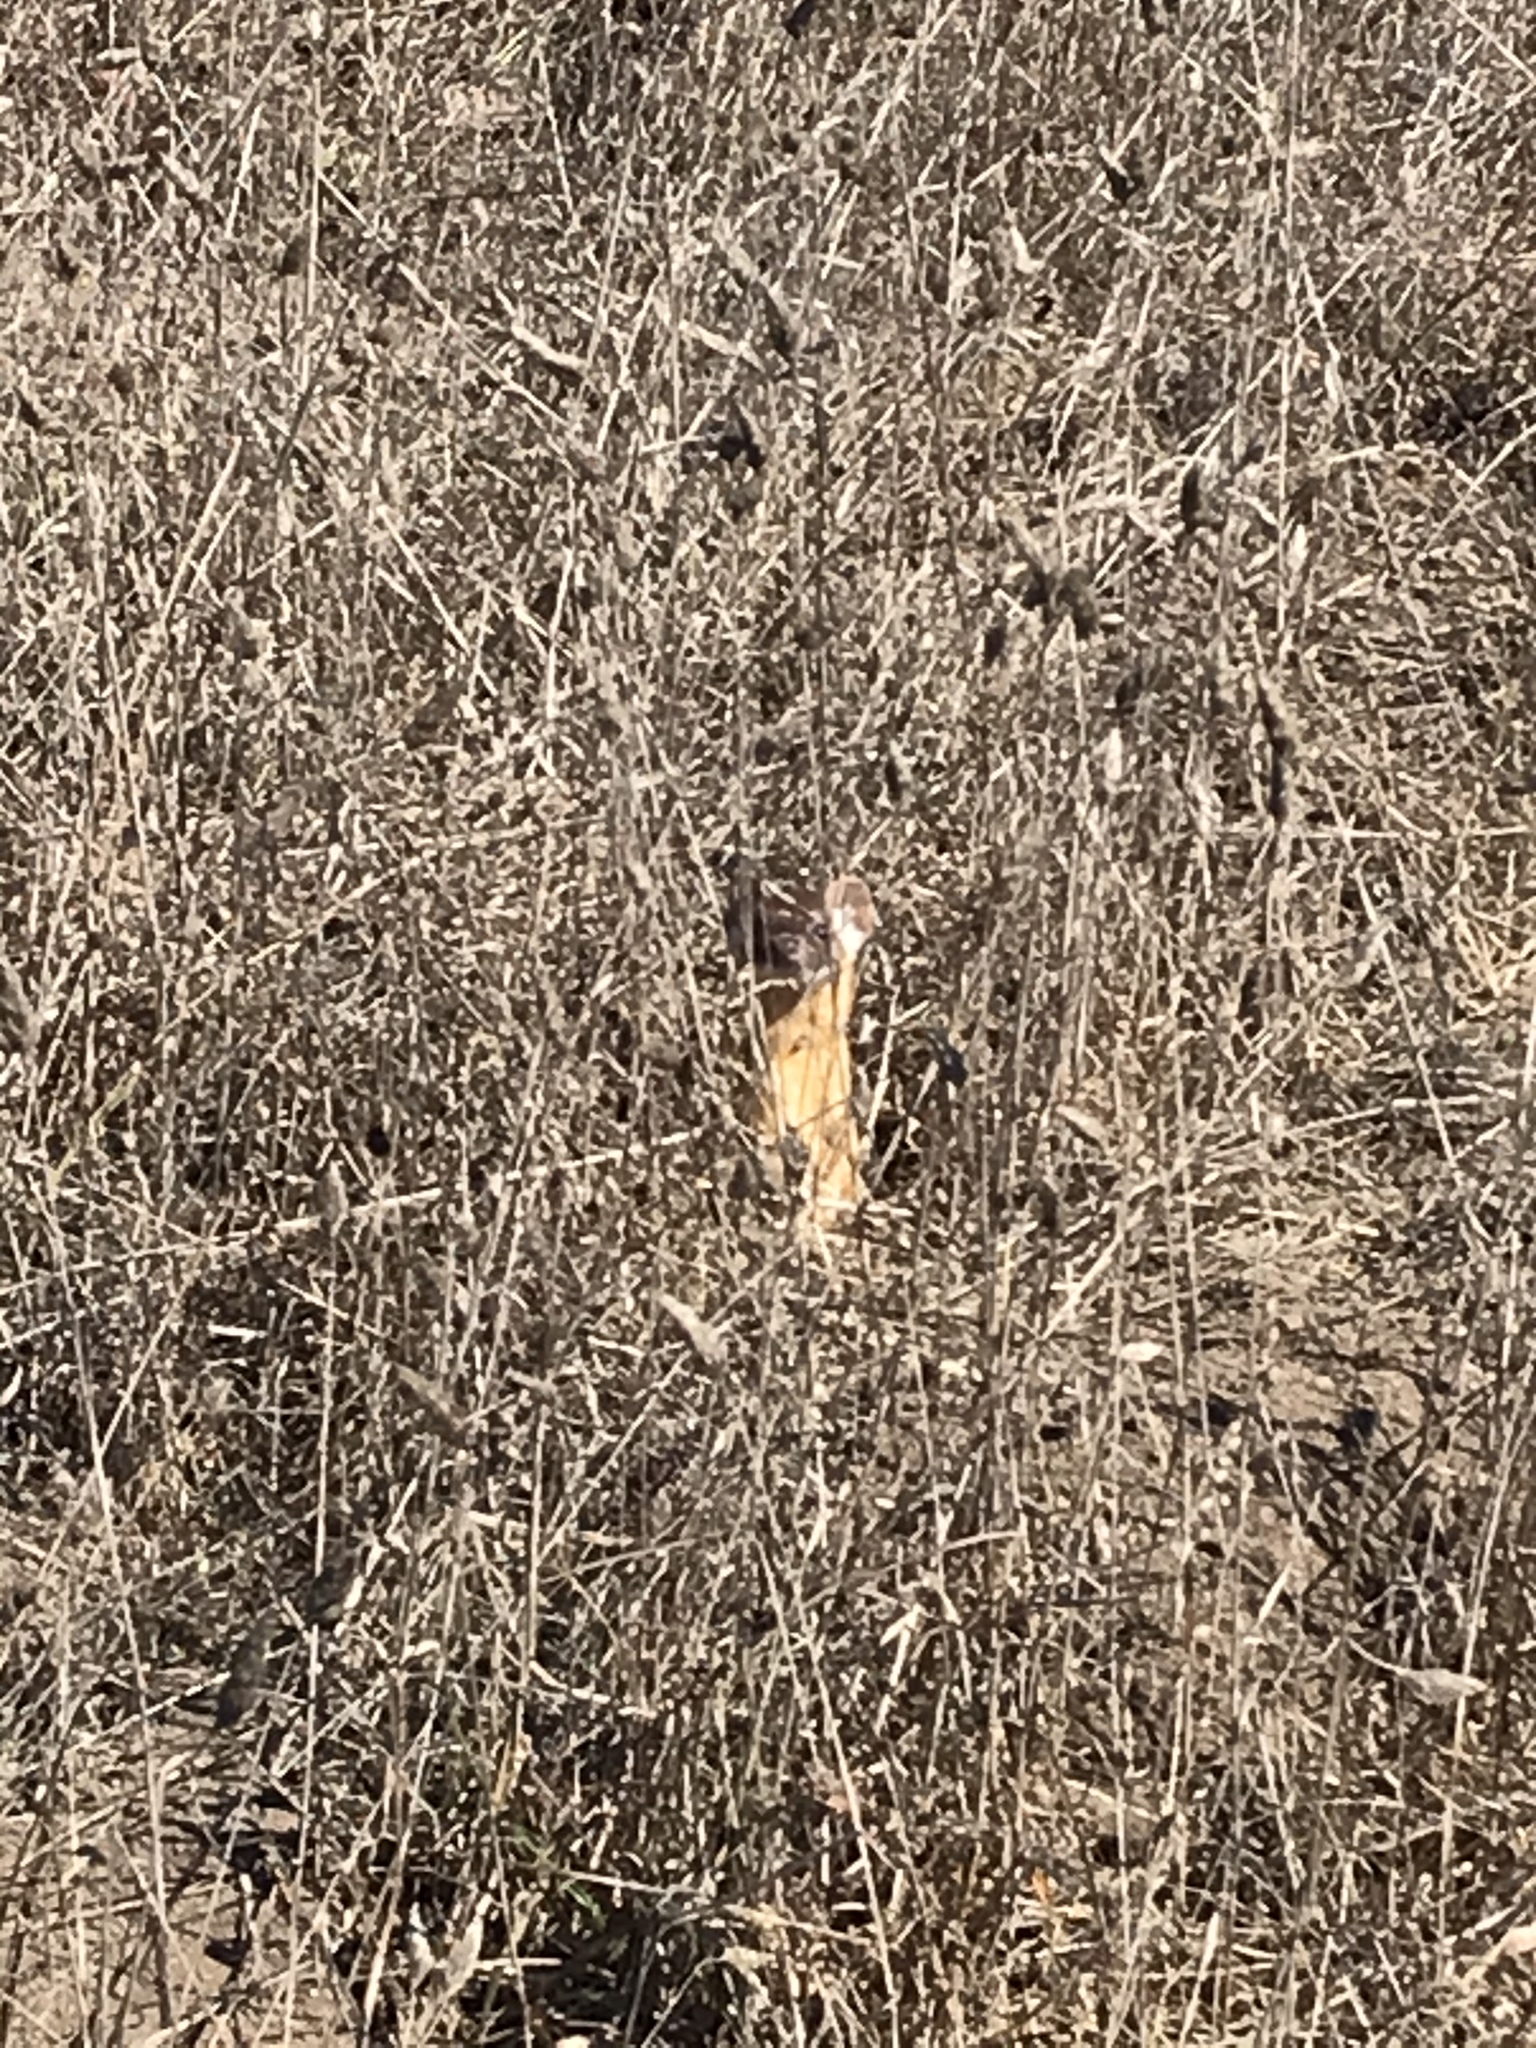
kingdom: Animalia
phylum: Chordata
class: Mammalia
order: Carnivora
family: Mustelidae
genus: Mustela
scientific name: Mustela
